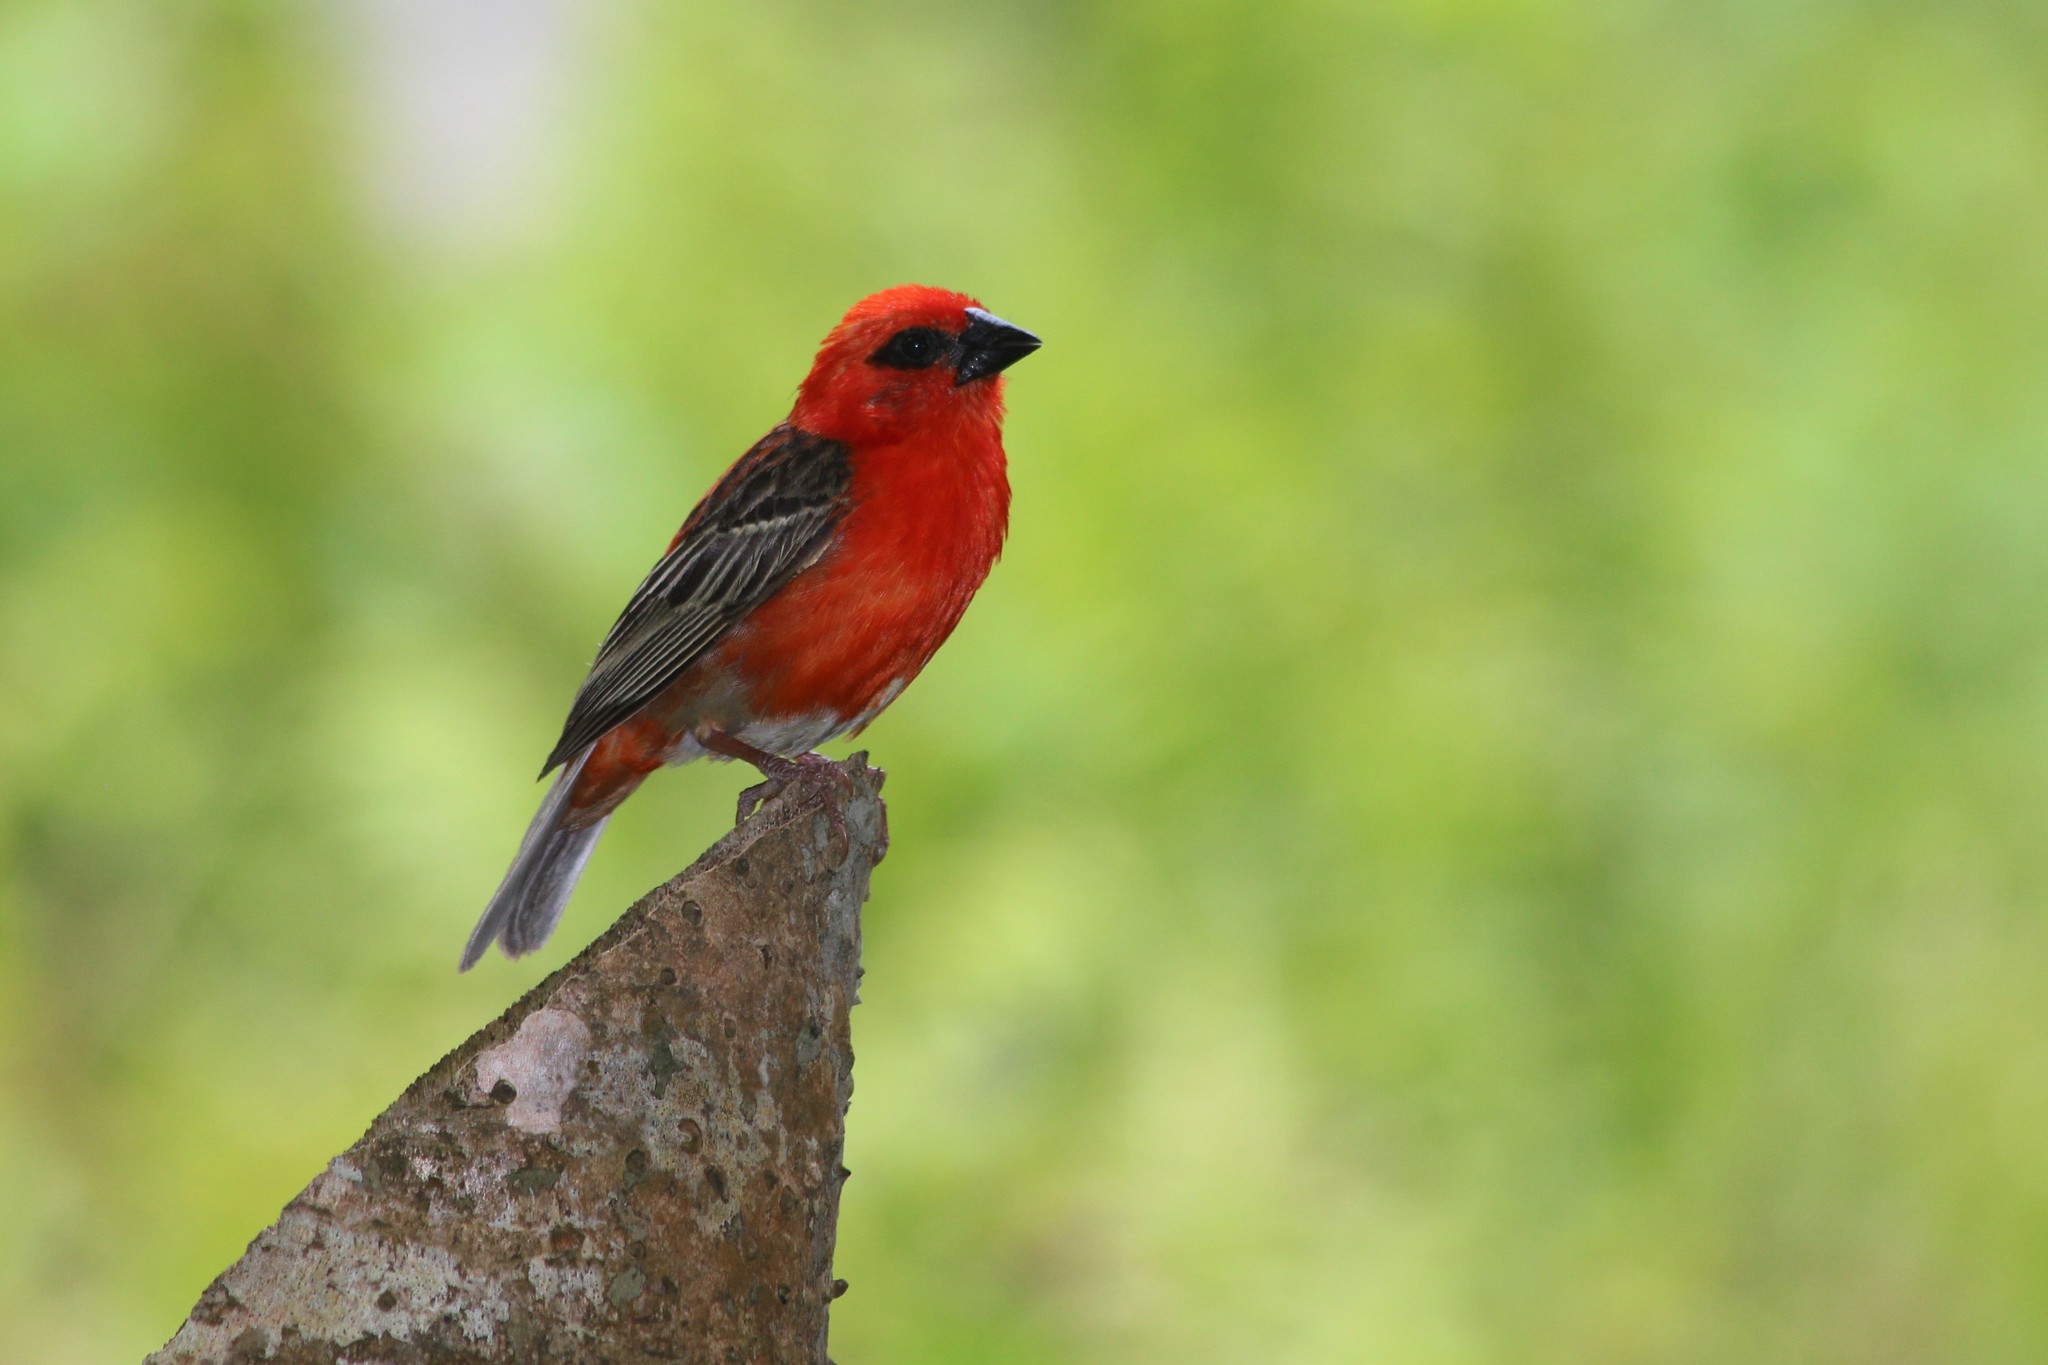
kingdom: Animalia
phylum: Chordata
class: Aves
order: Passeriformes
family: Ploceidae
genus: Foudia
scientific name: Foudia madagascariensis
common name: Red fody
